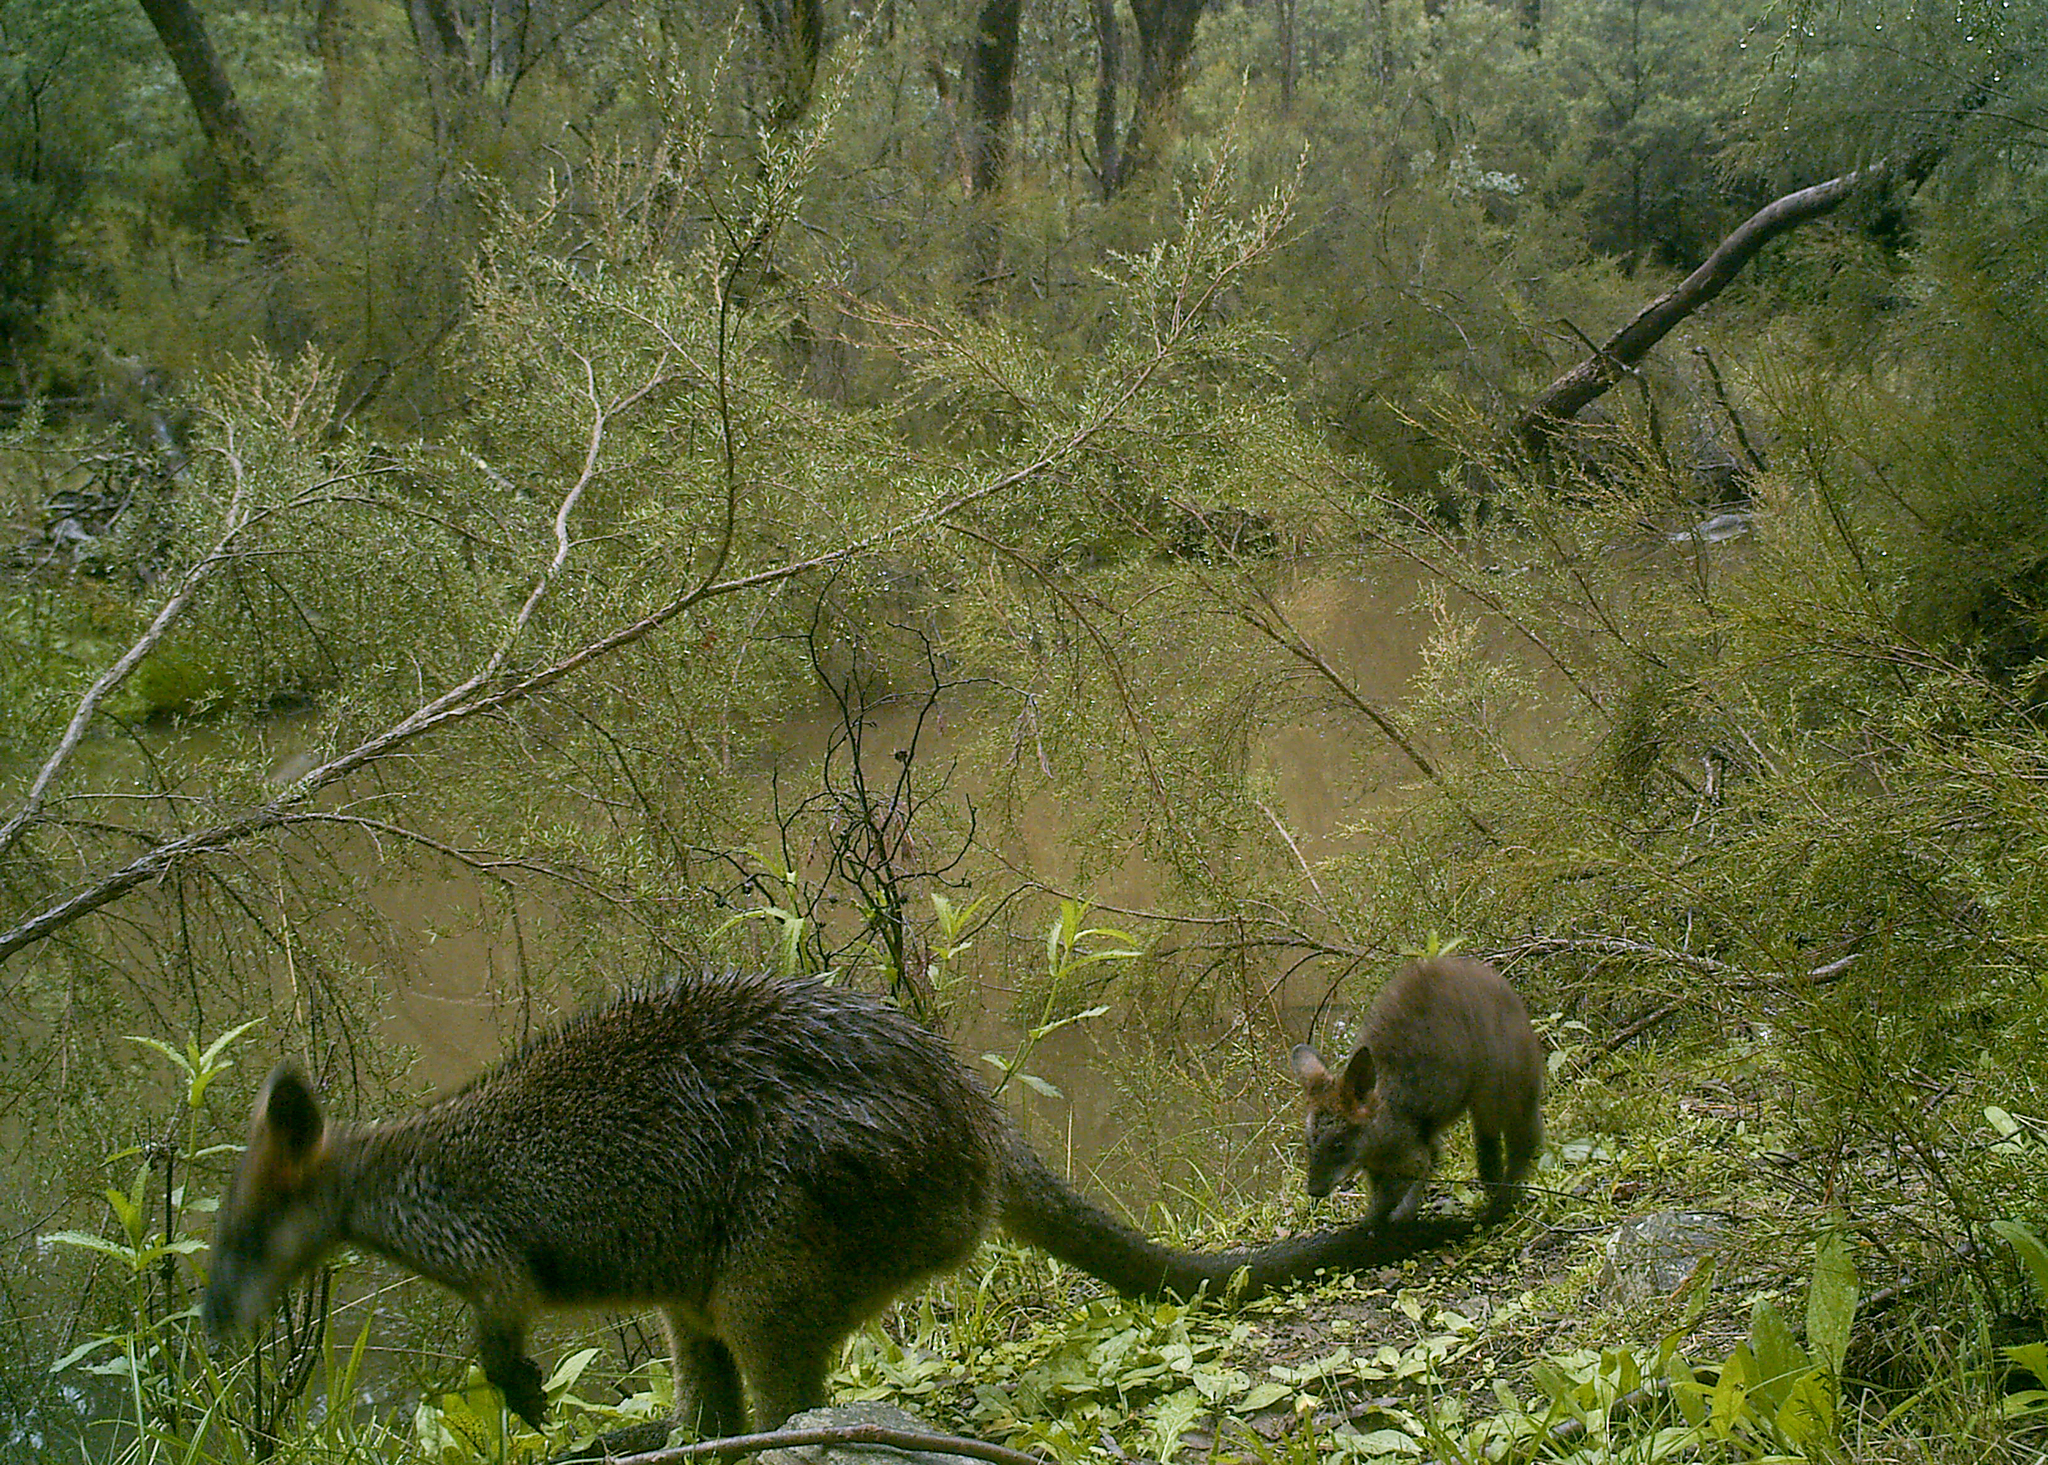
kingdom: Animalia
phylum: Chordata
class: Mammalia
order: Diprotodontia
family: Macropodidae
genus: Wallabia
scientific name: Wallabia bicolor
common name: Swamp wallaby
